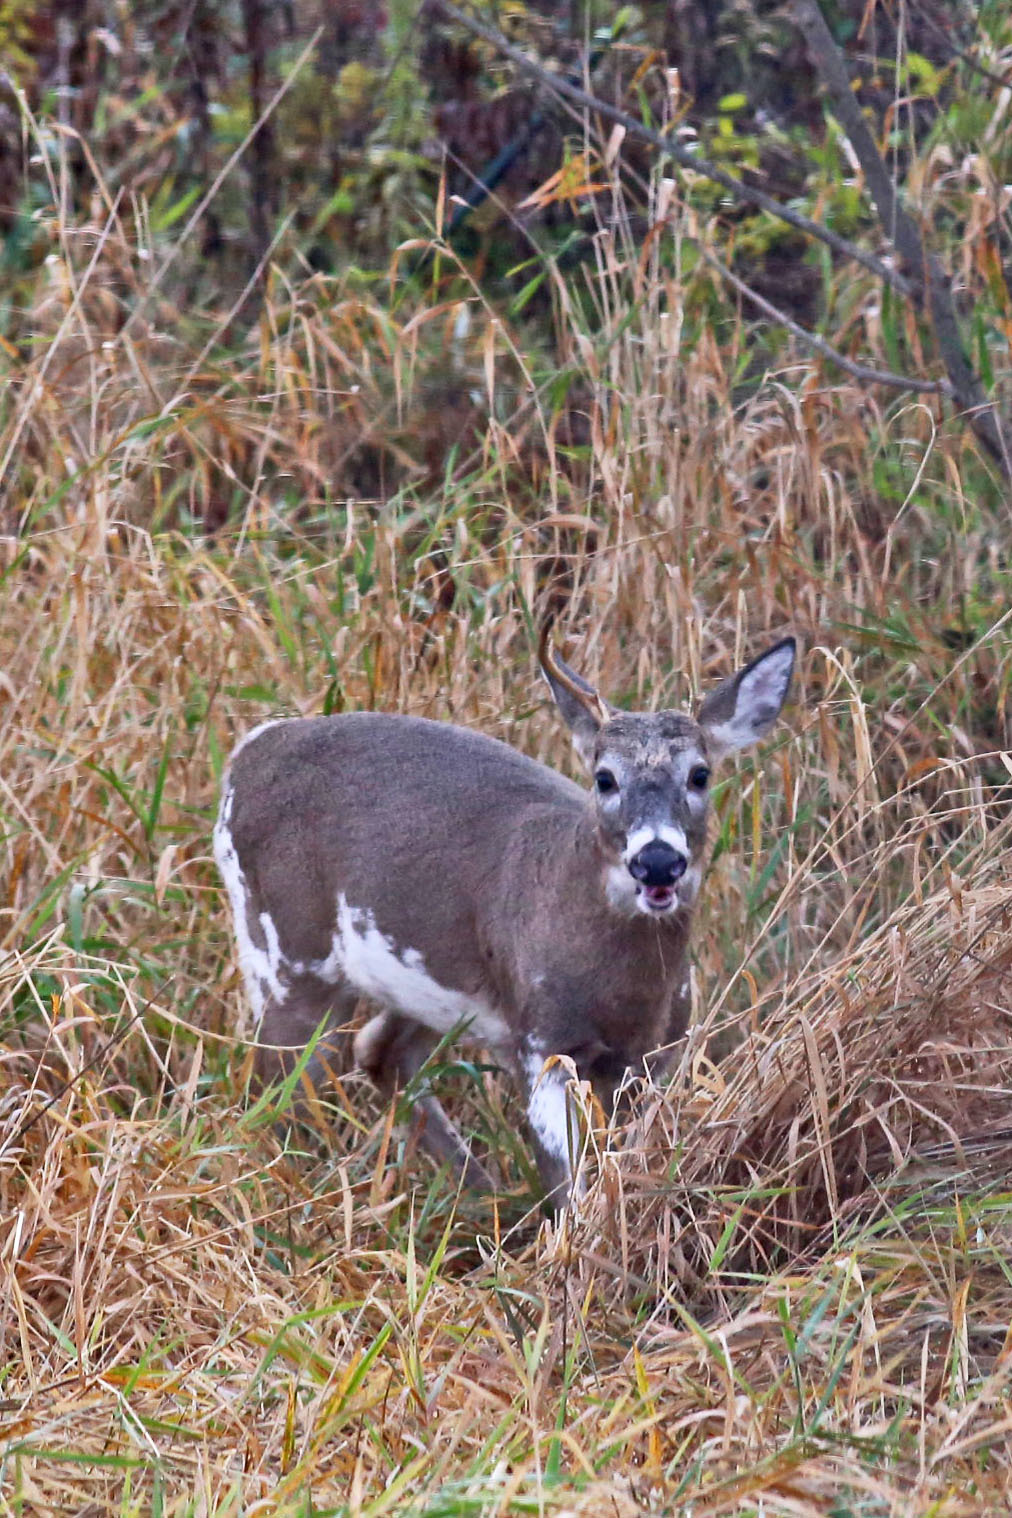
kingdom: Animalia
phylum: Chordata
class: Mammalia
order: Artiodactyla
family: Cervidae
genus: Odocoileus
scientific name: Odocoileus virginianus
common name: White-tailed deer
